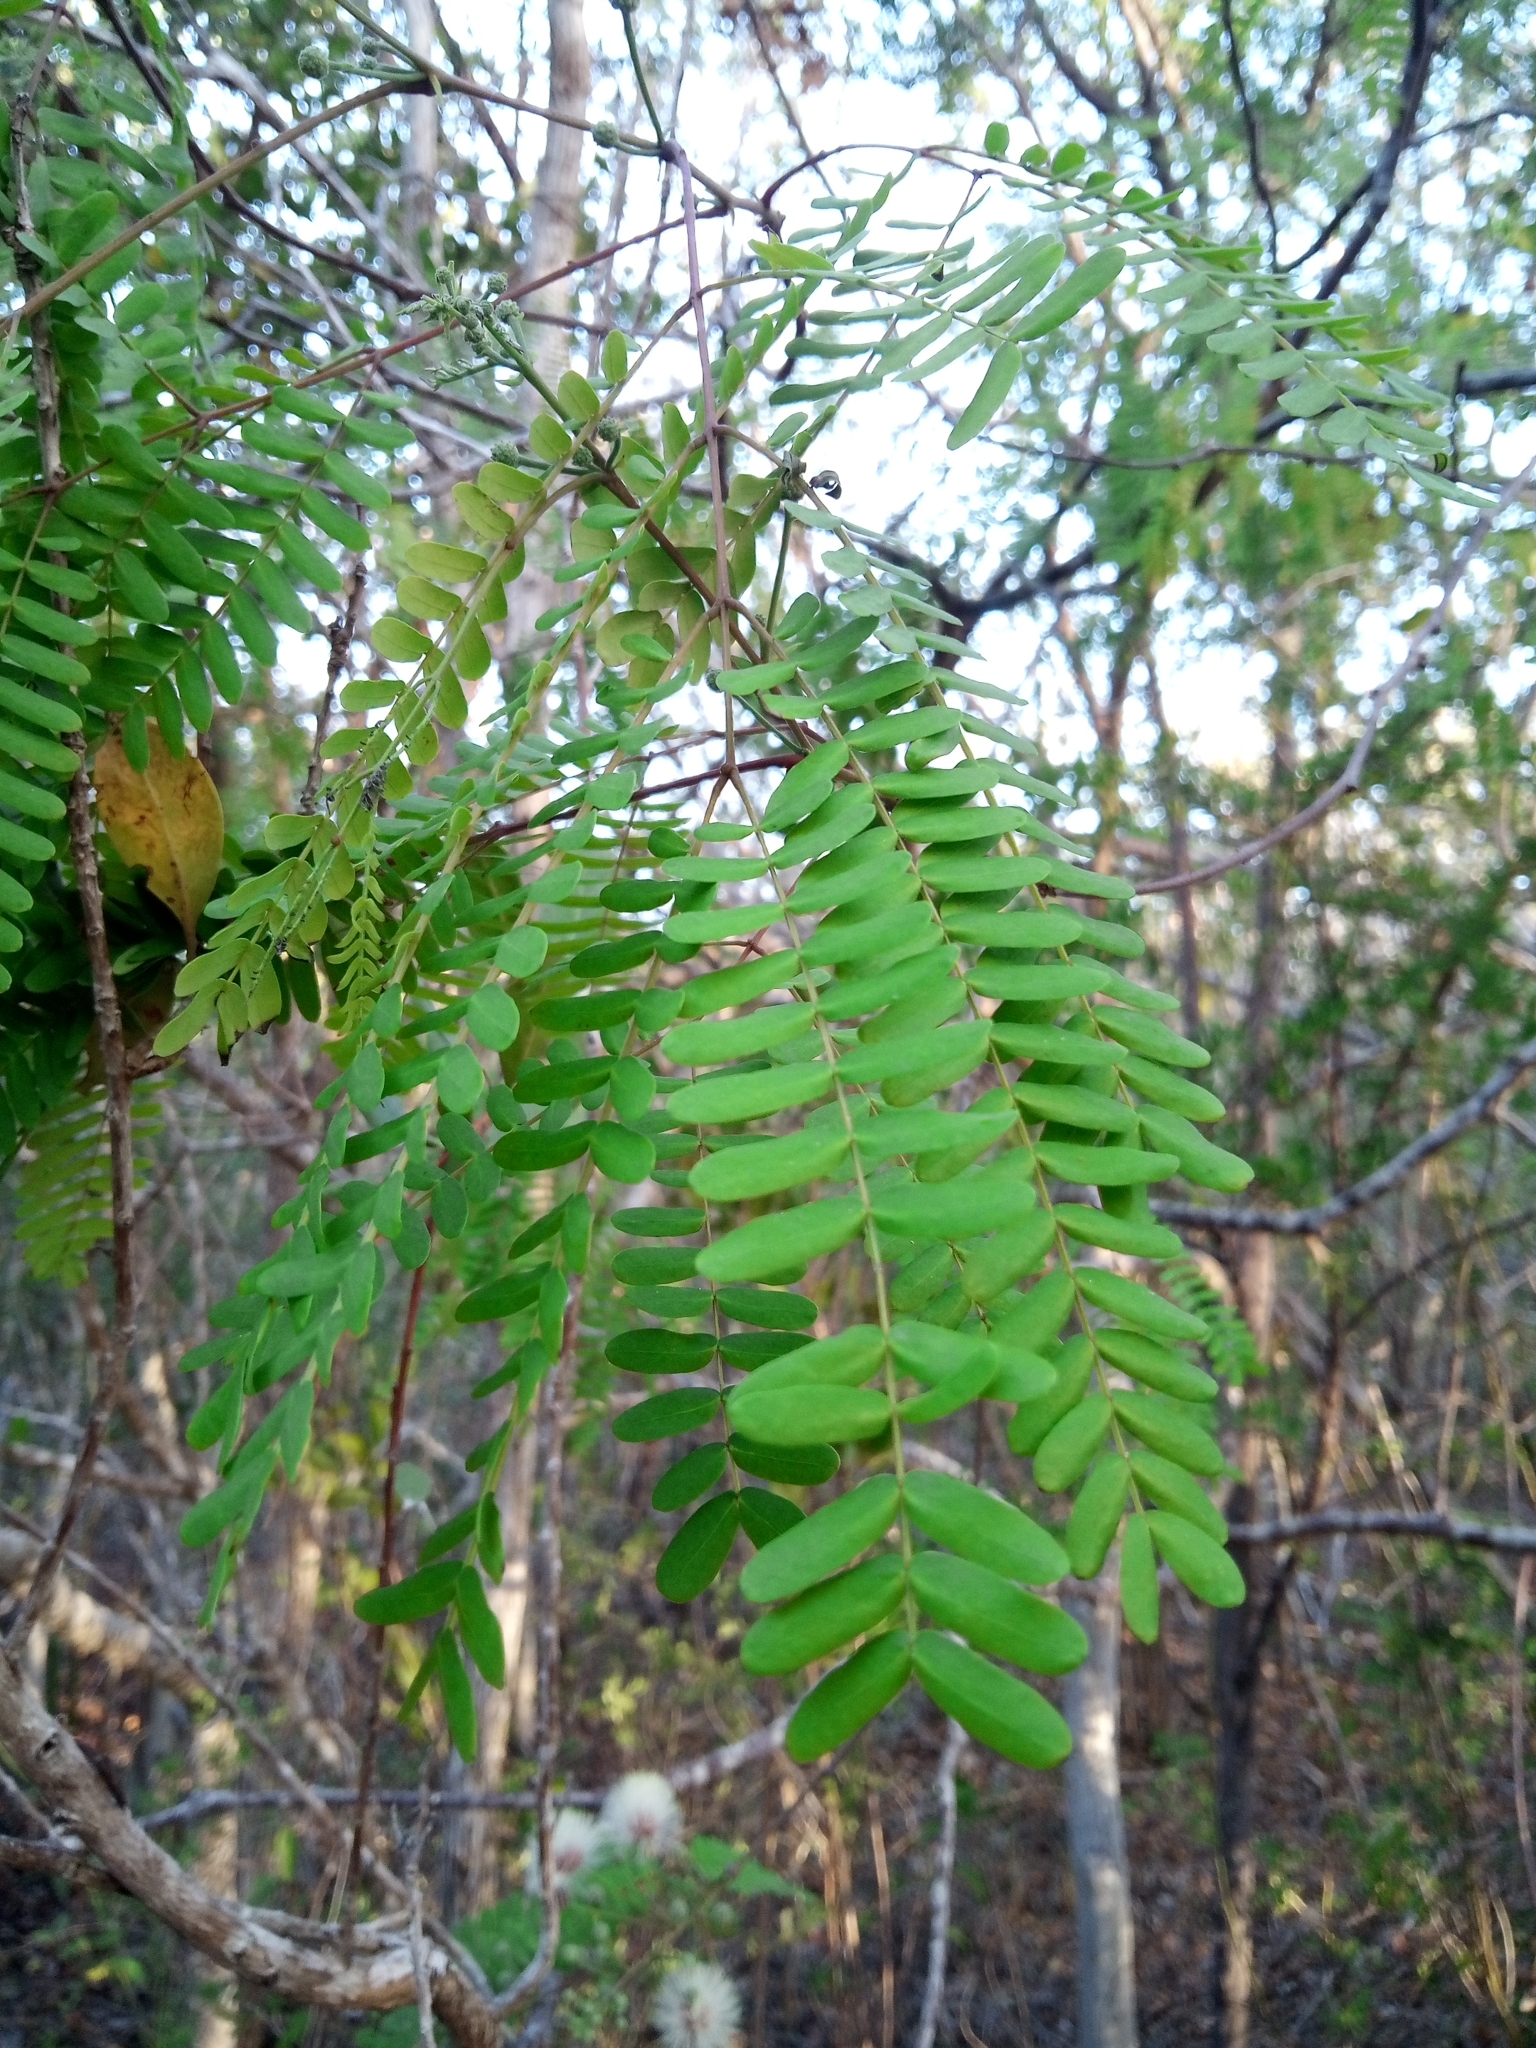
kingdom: Plantae
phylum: Tracheophyta
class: Magnoliopsida
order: Fabales
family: Fabaceae
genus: Lysiloma
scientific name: Lysiloma latisiliquum
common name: Wild tamarind
